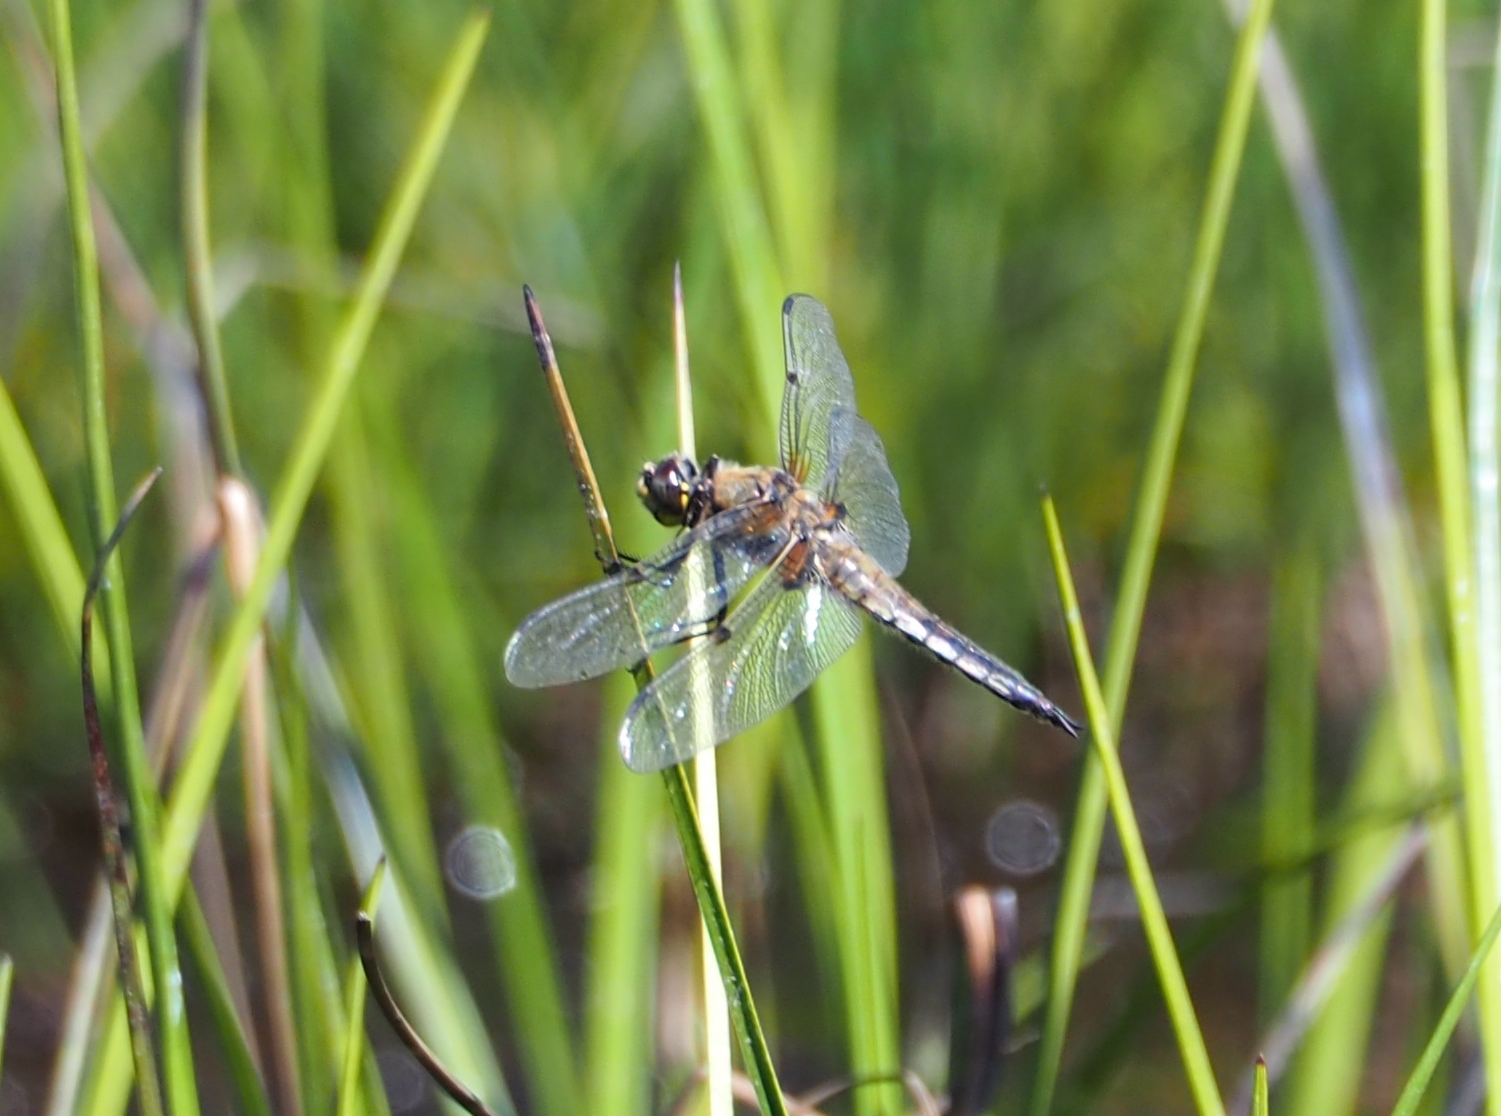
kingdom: Animalia
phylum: Arthropoda
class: Insecta
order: Odonata
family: Libellulidae
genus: Libellula
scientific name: Libellula quadrimaculata
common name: Four-spotted chaser
